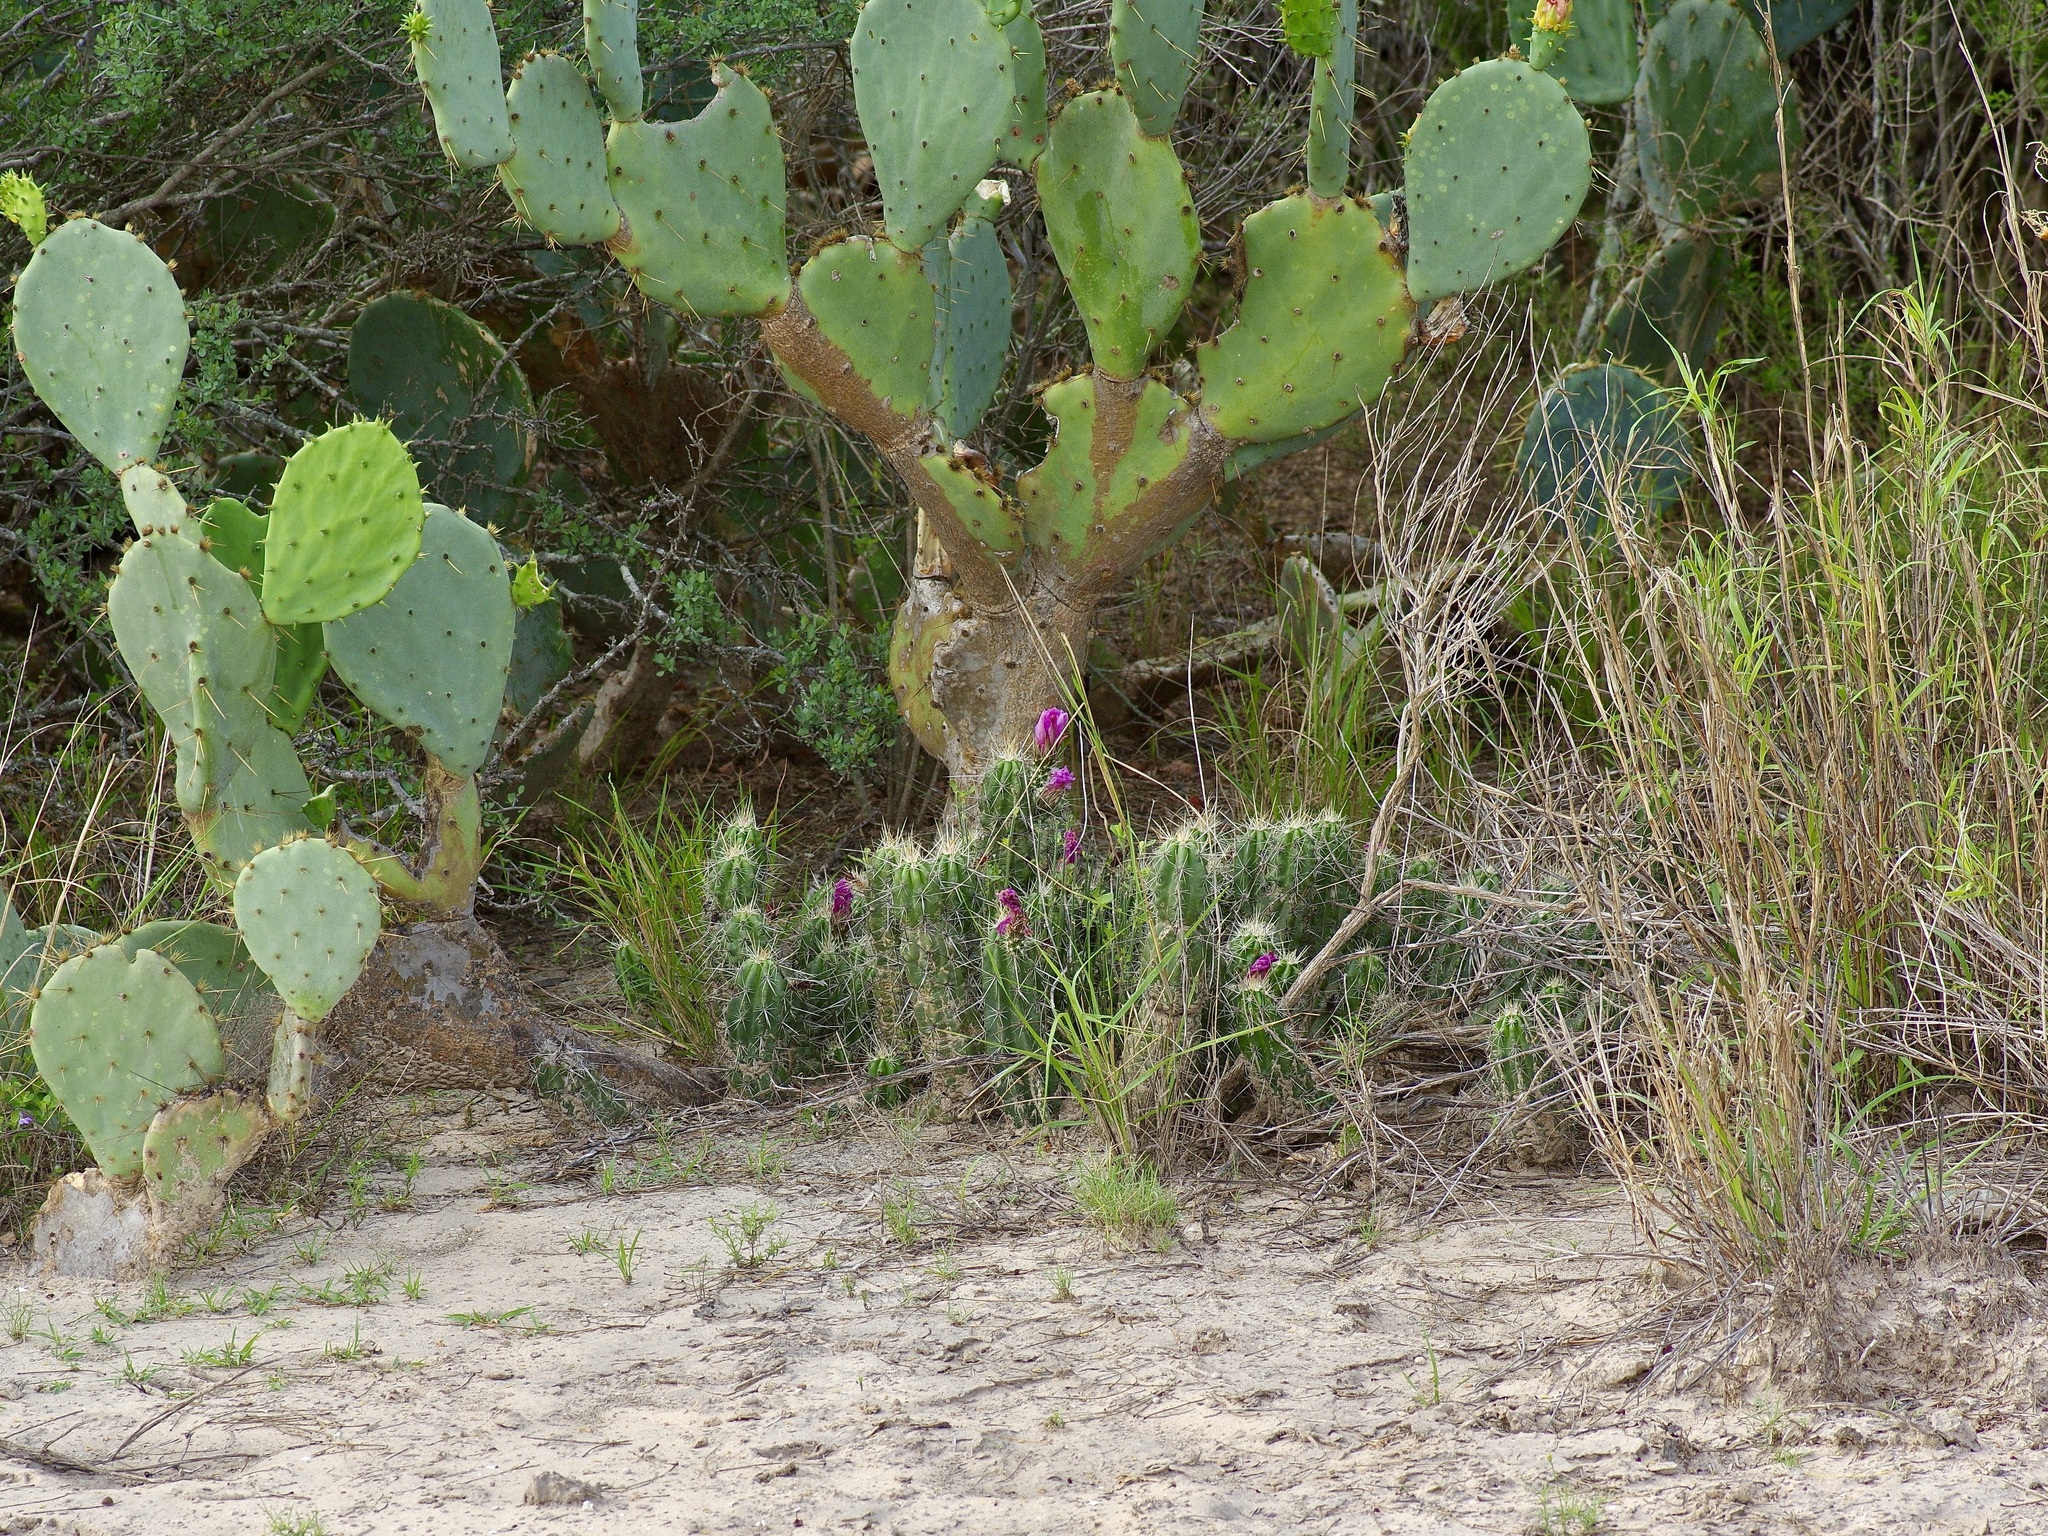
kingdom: Plantae
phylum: Tracheophyta
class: Magnoliopsida
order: Caryophyllales
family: Cactaceae
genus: Echinocereus
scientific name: Echinocereus enneacanthus
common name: Pitaya
